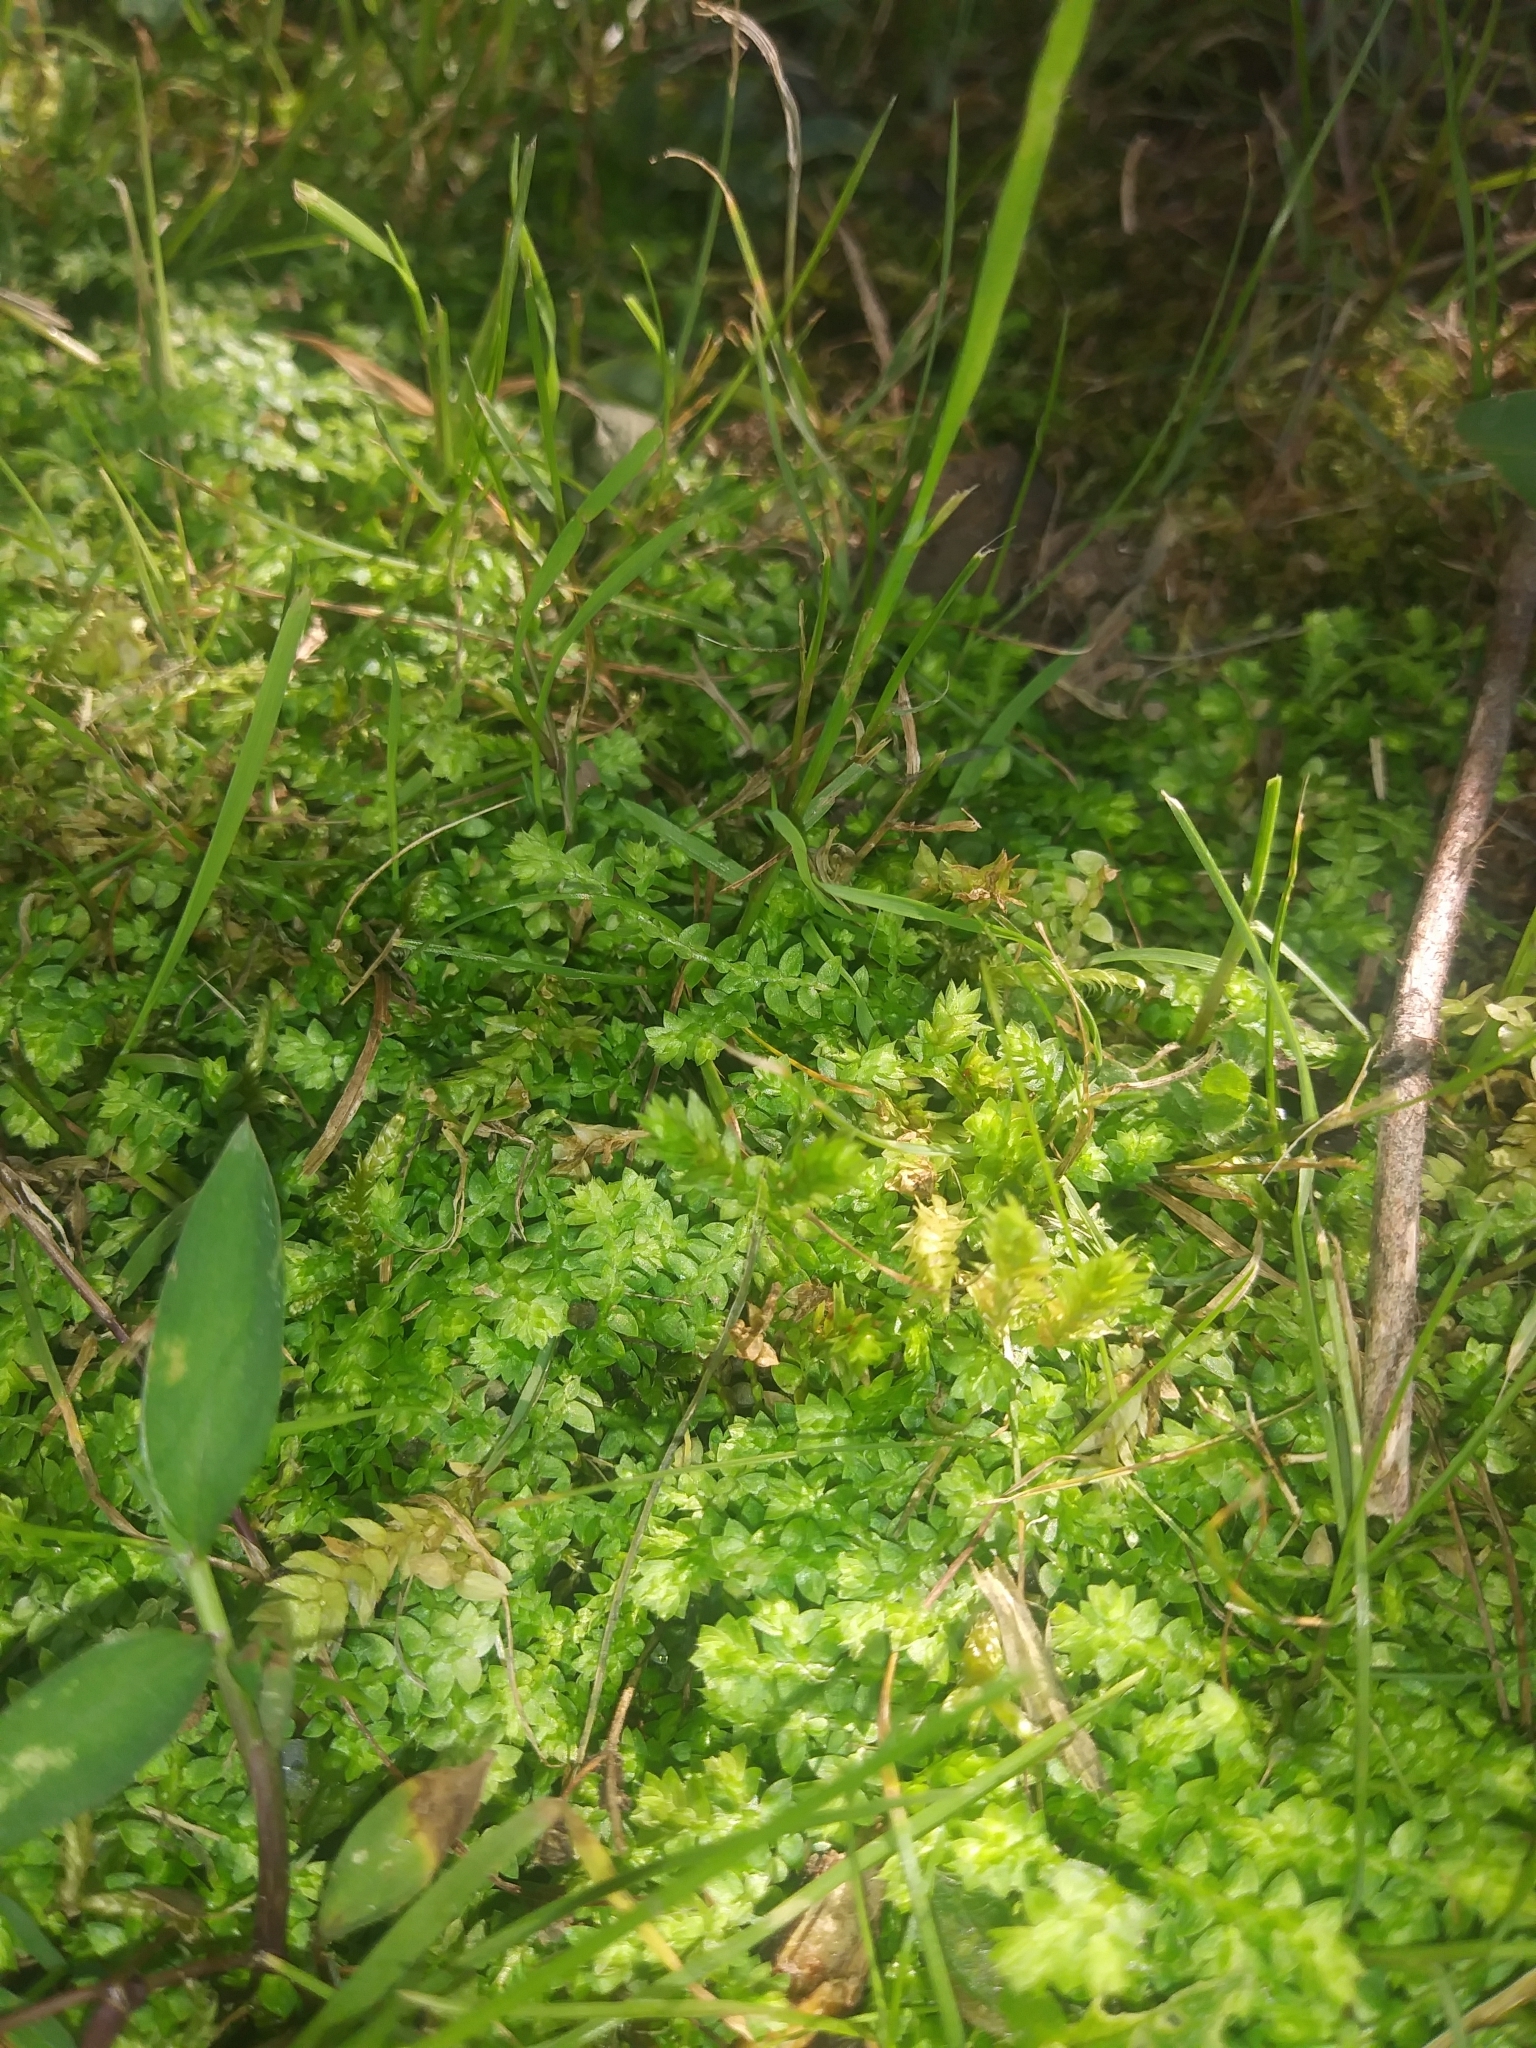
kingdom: Plantae
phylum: Tracheophyta
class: Lycopodiopsida
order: Selaginellales
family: Selaginellaceae
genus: Selaginella
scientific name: Selaginella apoda
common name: Creeping spikemoss
